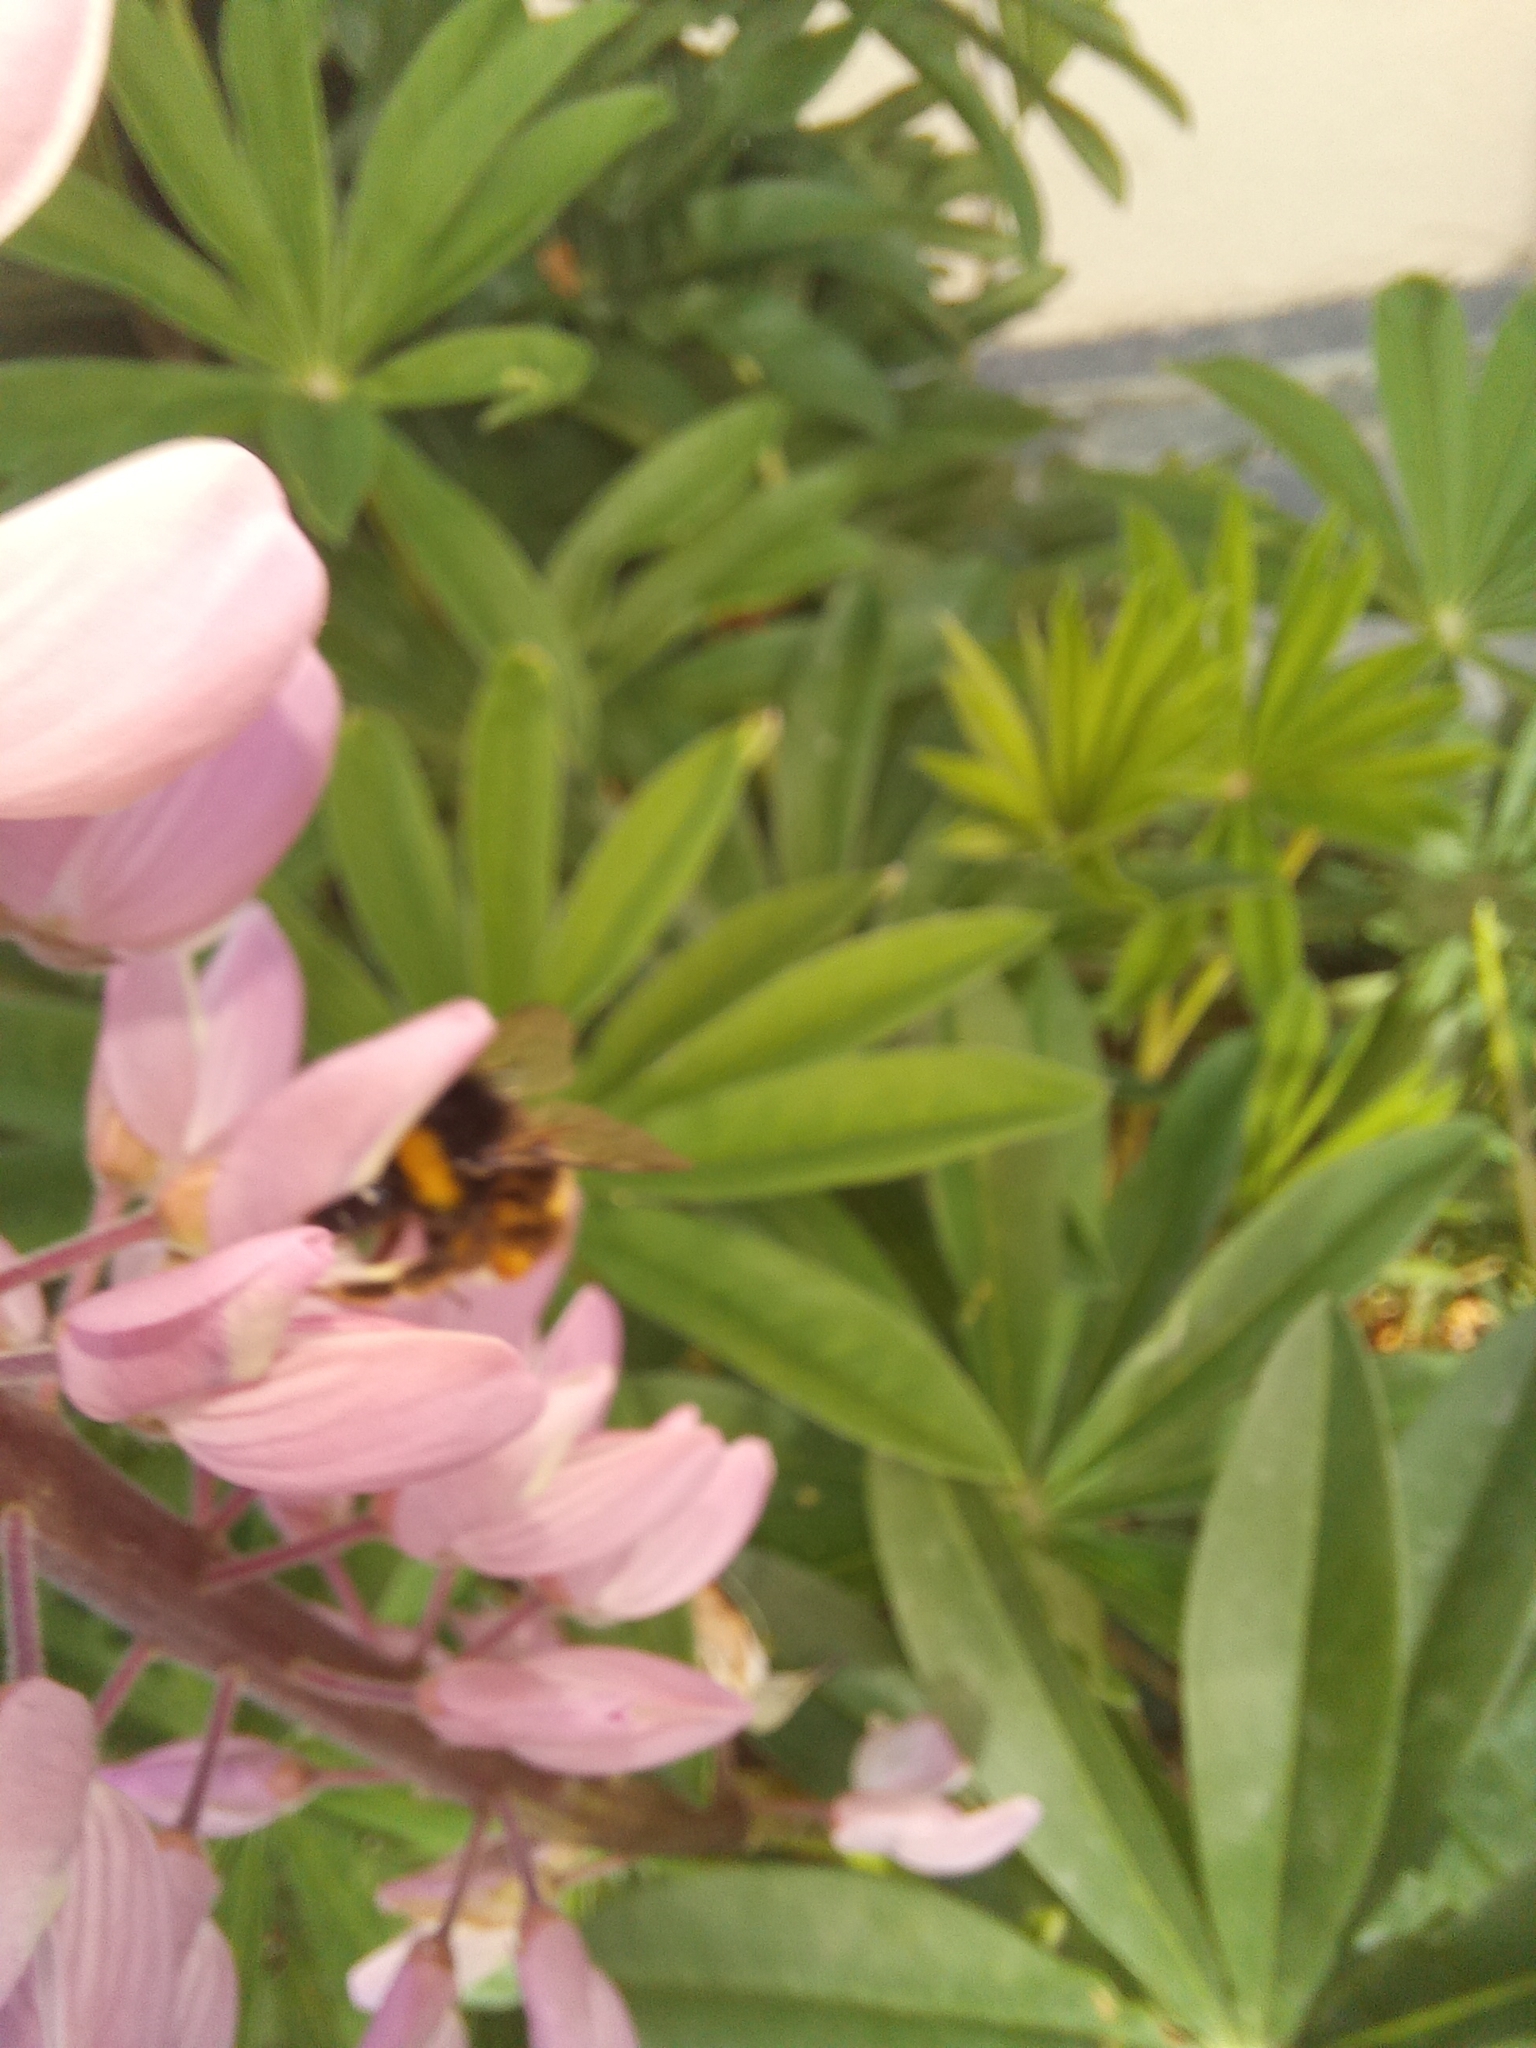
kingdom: Animalia
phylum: Arthropoda
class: Insecta
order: Hymenoptera
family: Apidae
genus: Bombus
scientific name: Bombus terrestris
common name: Buff-tailed bumblebee
